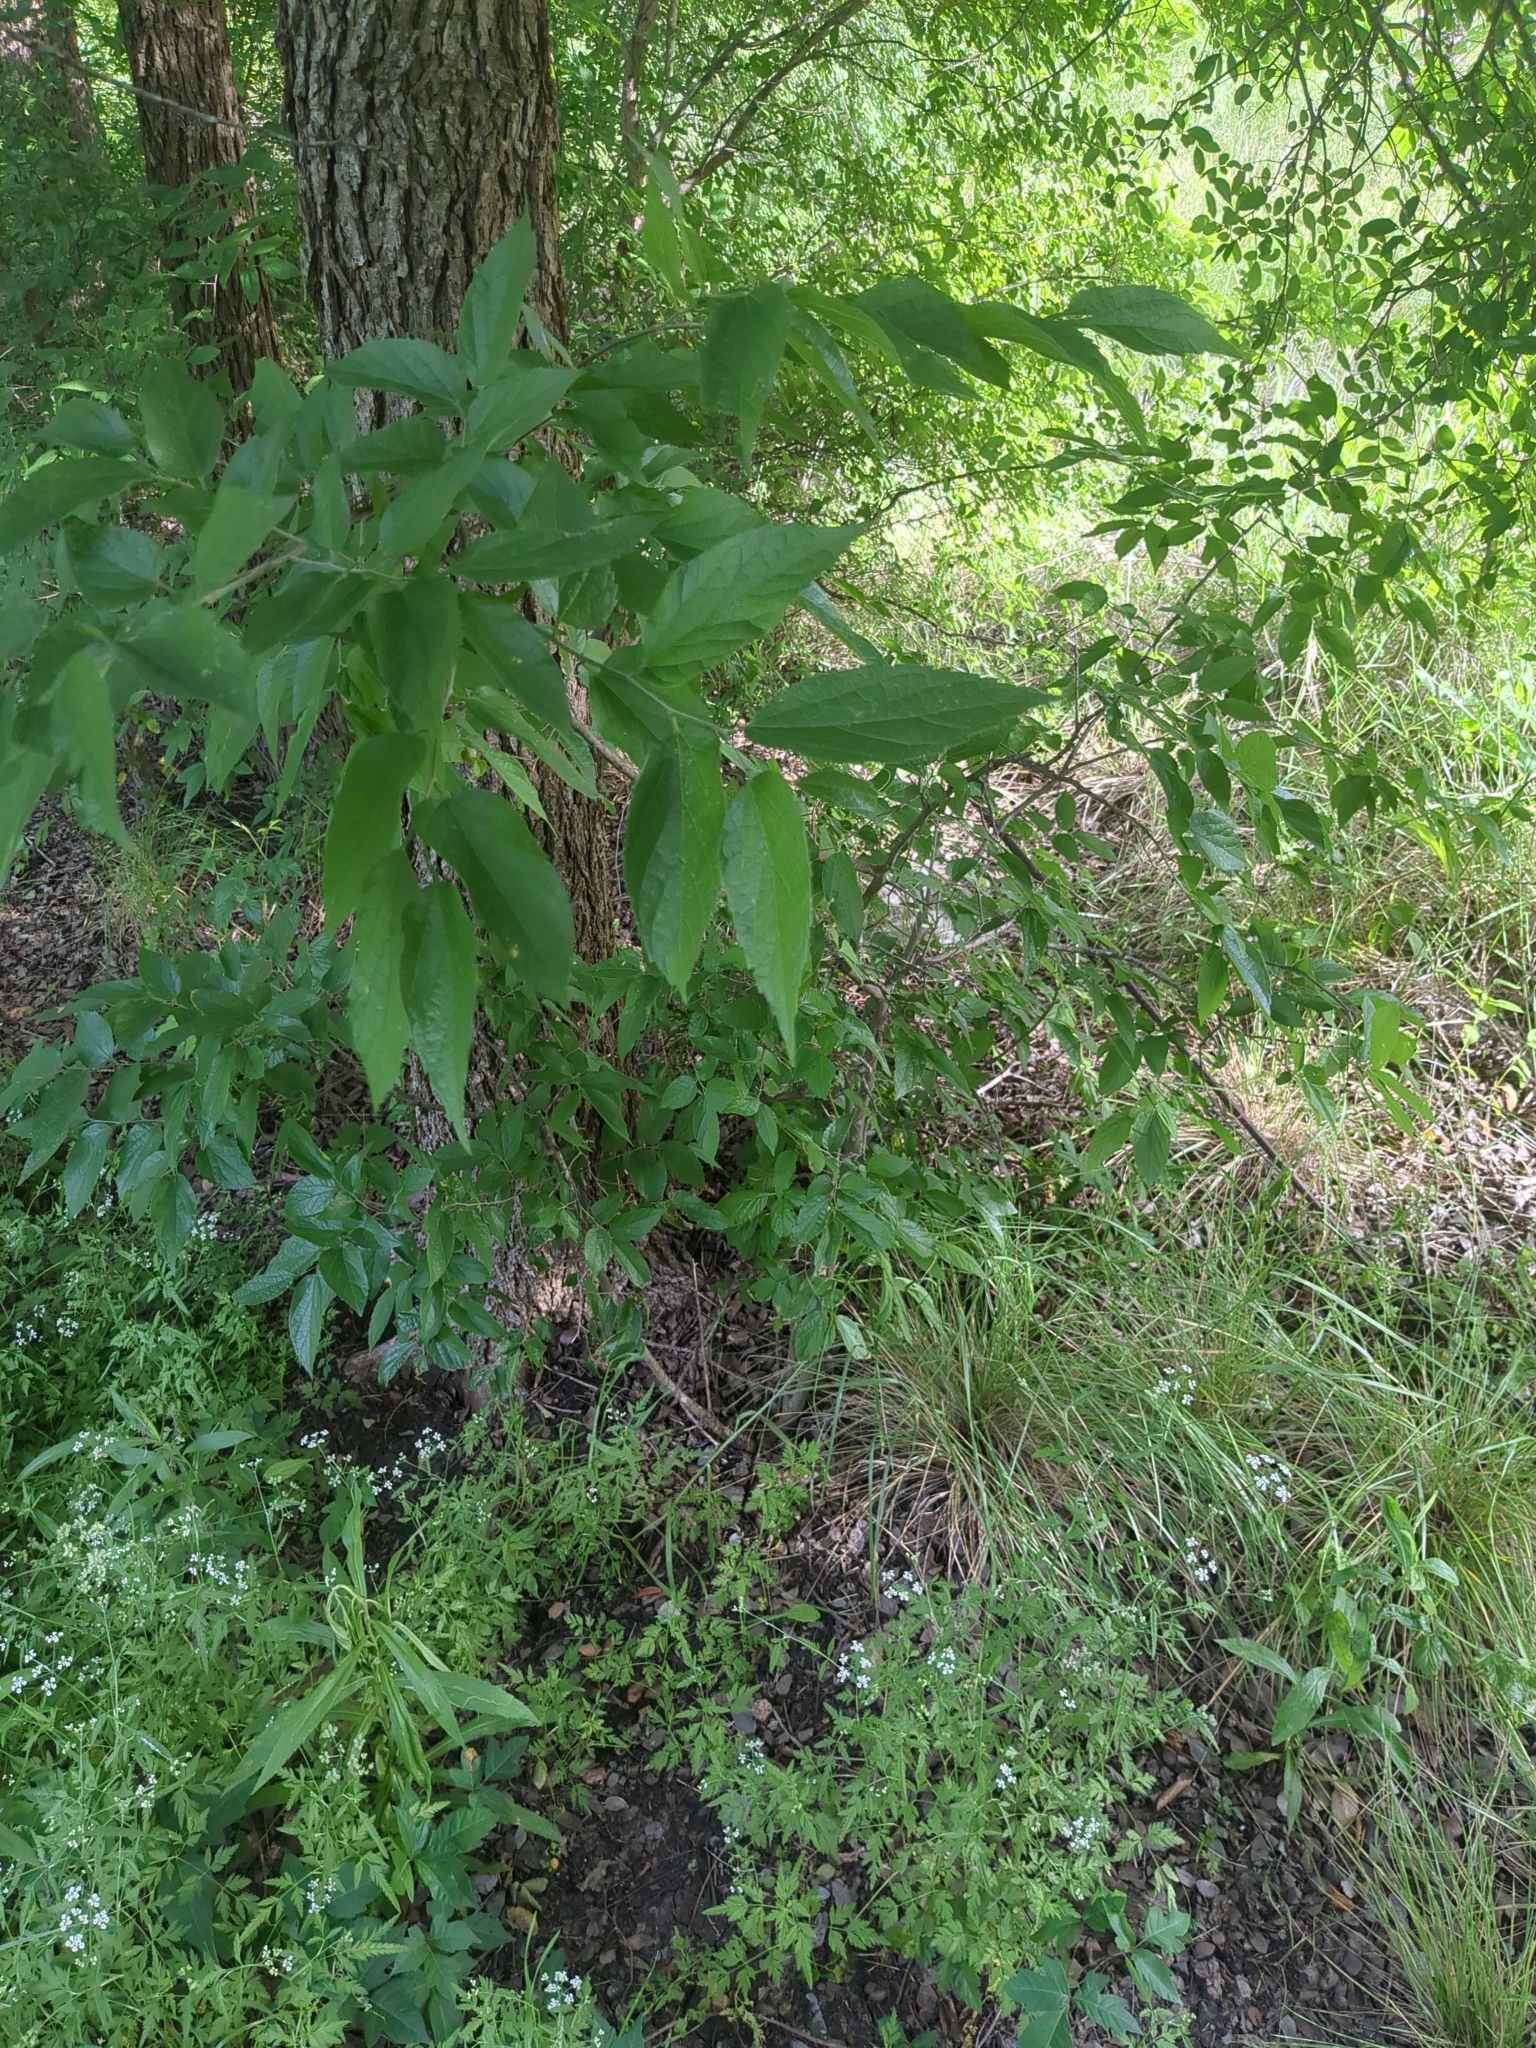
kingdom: Plantae
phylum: Tracheophyta
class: Magnoliopsida
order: Rosales
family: Cannabaceae
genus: Celtis
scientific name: Celtis laevigata
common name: Sugarberry
